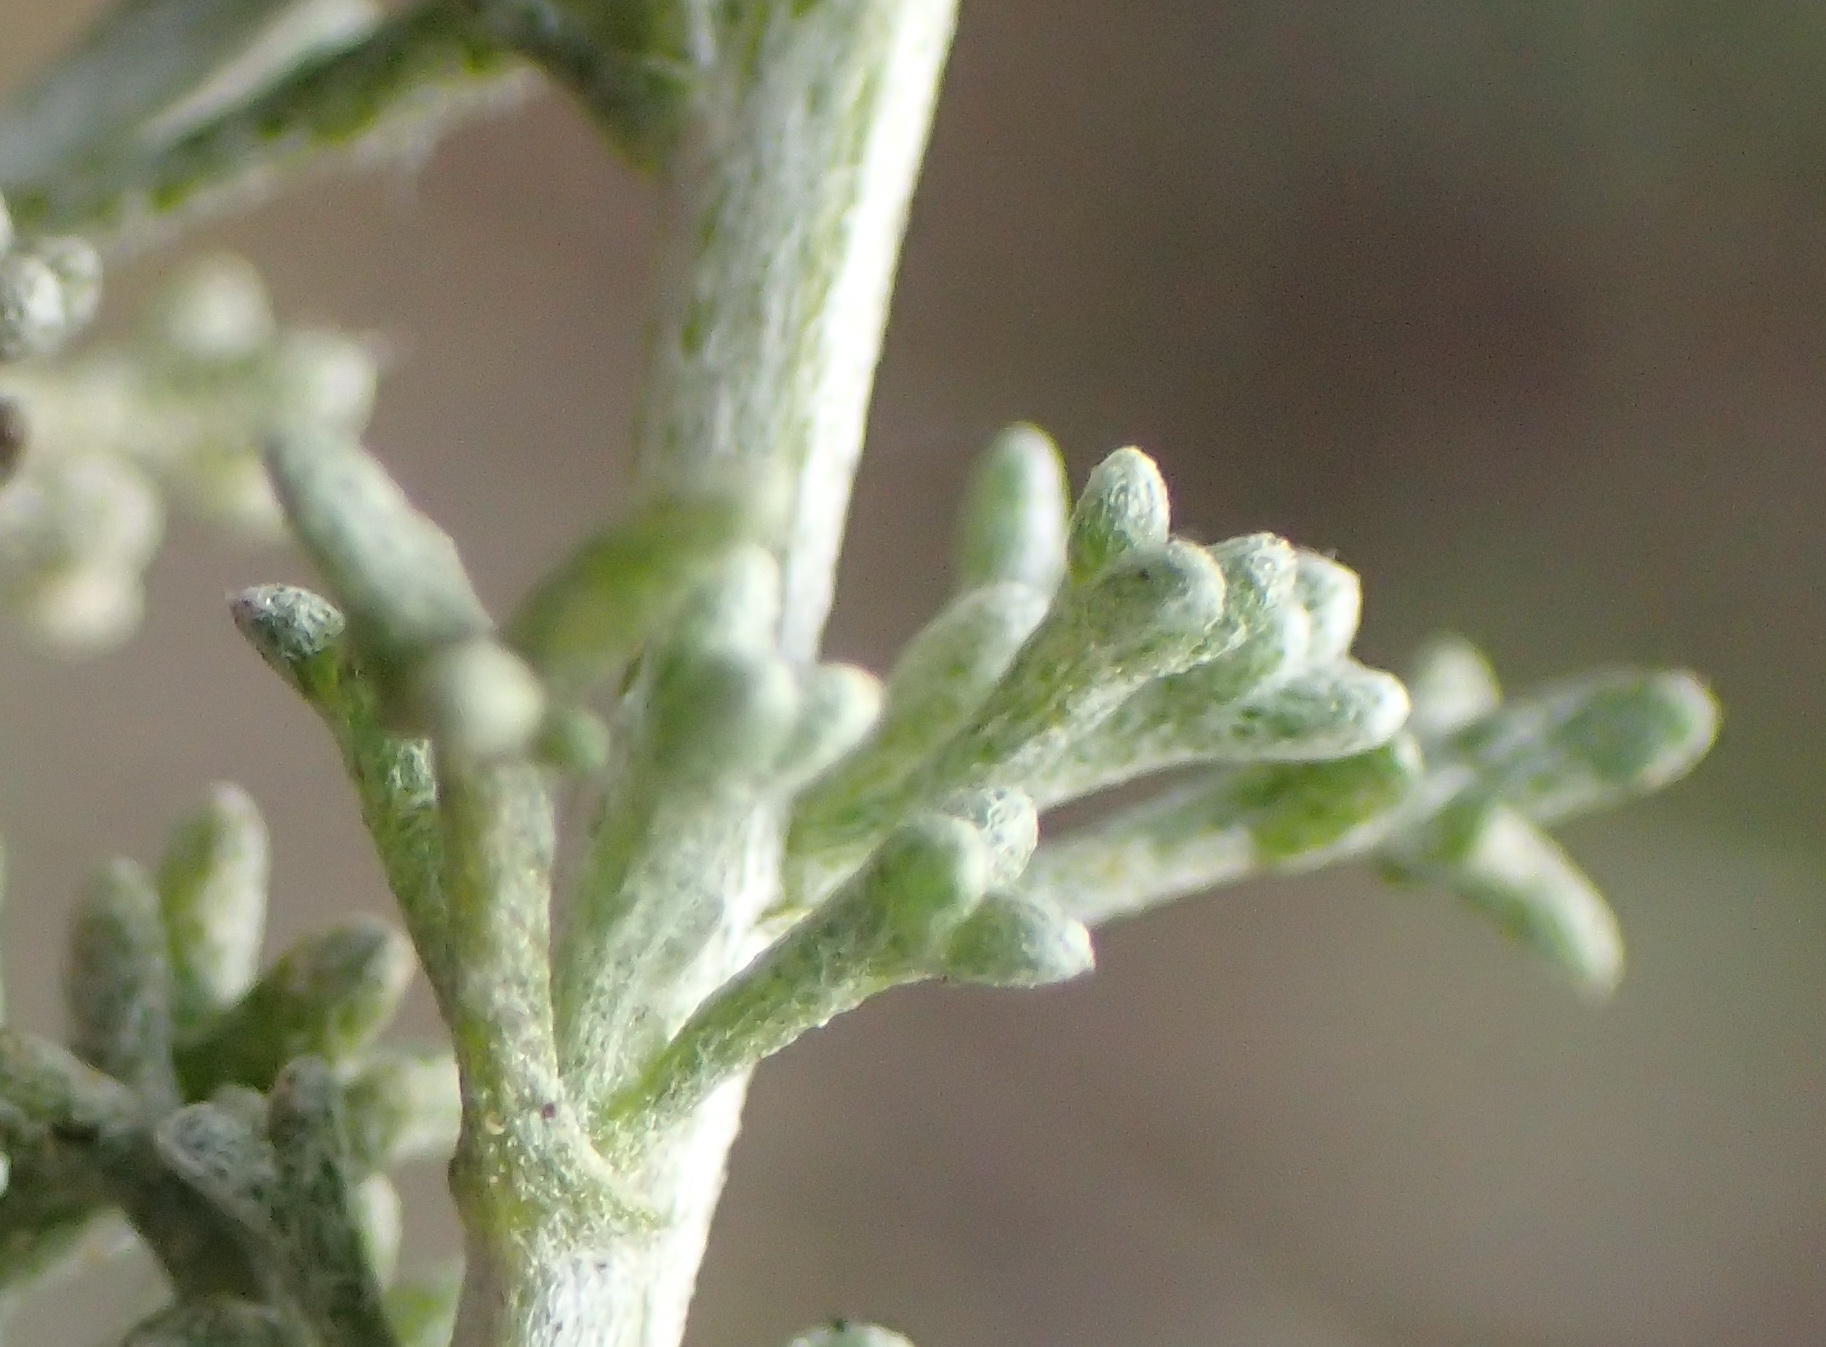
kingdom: Plantae
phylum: Tracheophyta
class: Magnoliopsida
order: Asterales
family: Asteraceae
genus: Pentzia
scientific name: Pentzia incana
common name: African sheepbush
